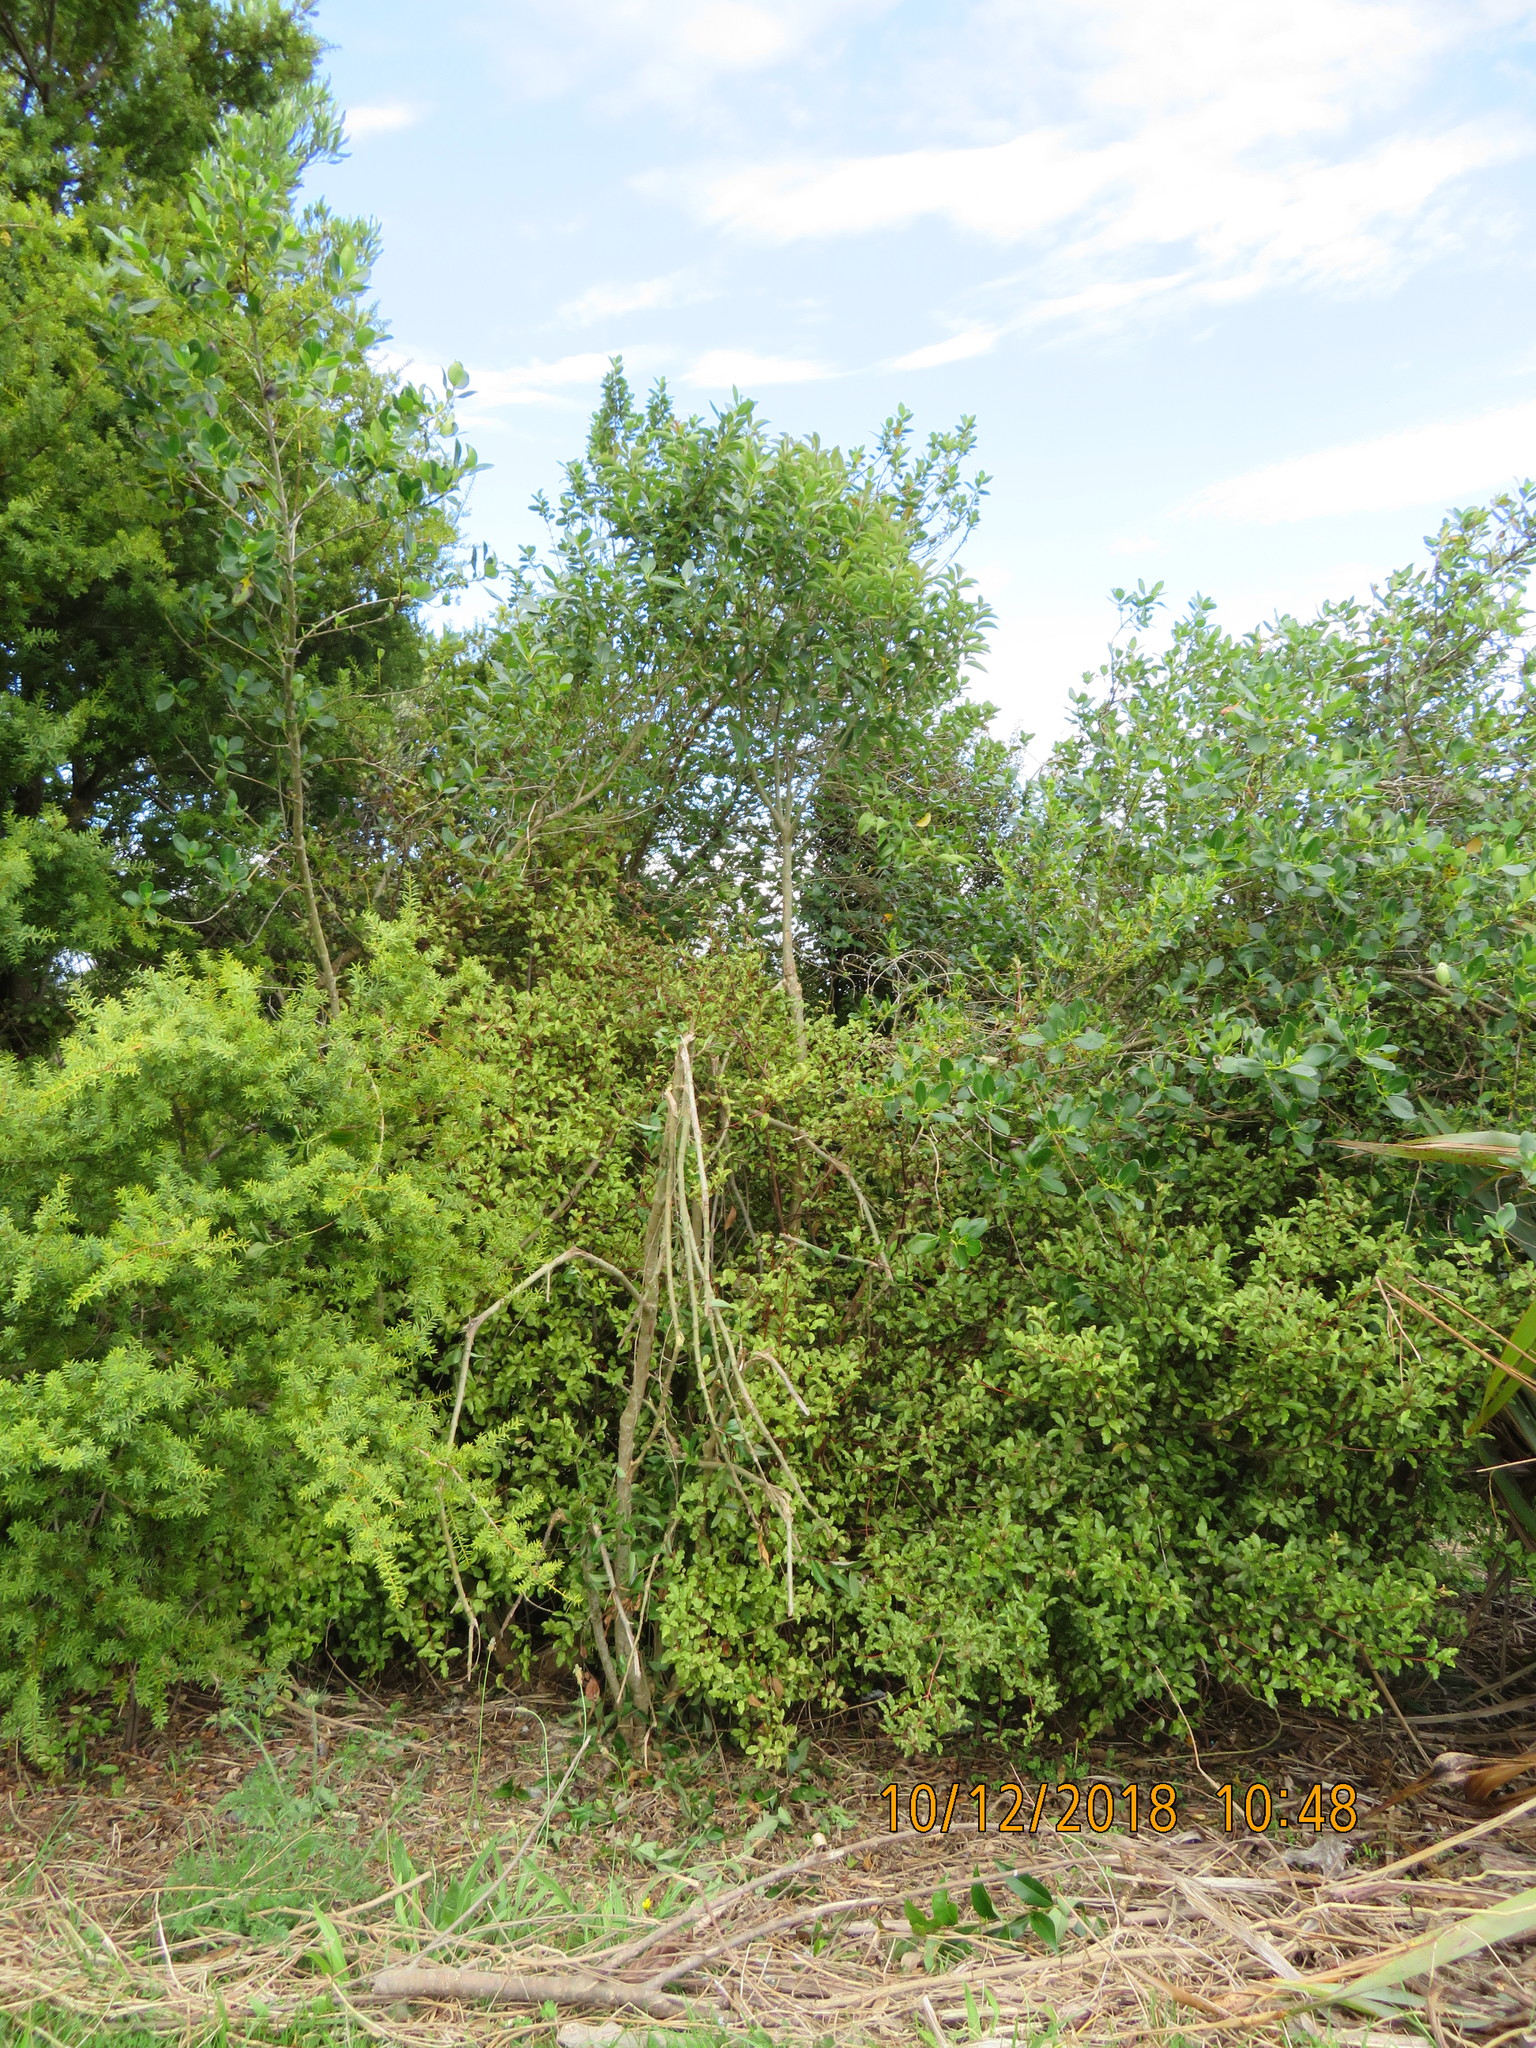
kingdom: Plantae
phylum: Tracheophyta
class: Pinopsida
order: Pinales
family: Podocarpaceae
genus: Podocarpus
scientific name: Podocarpus totara
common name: Totara
